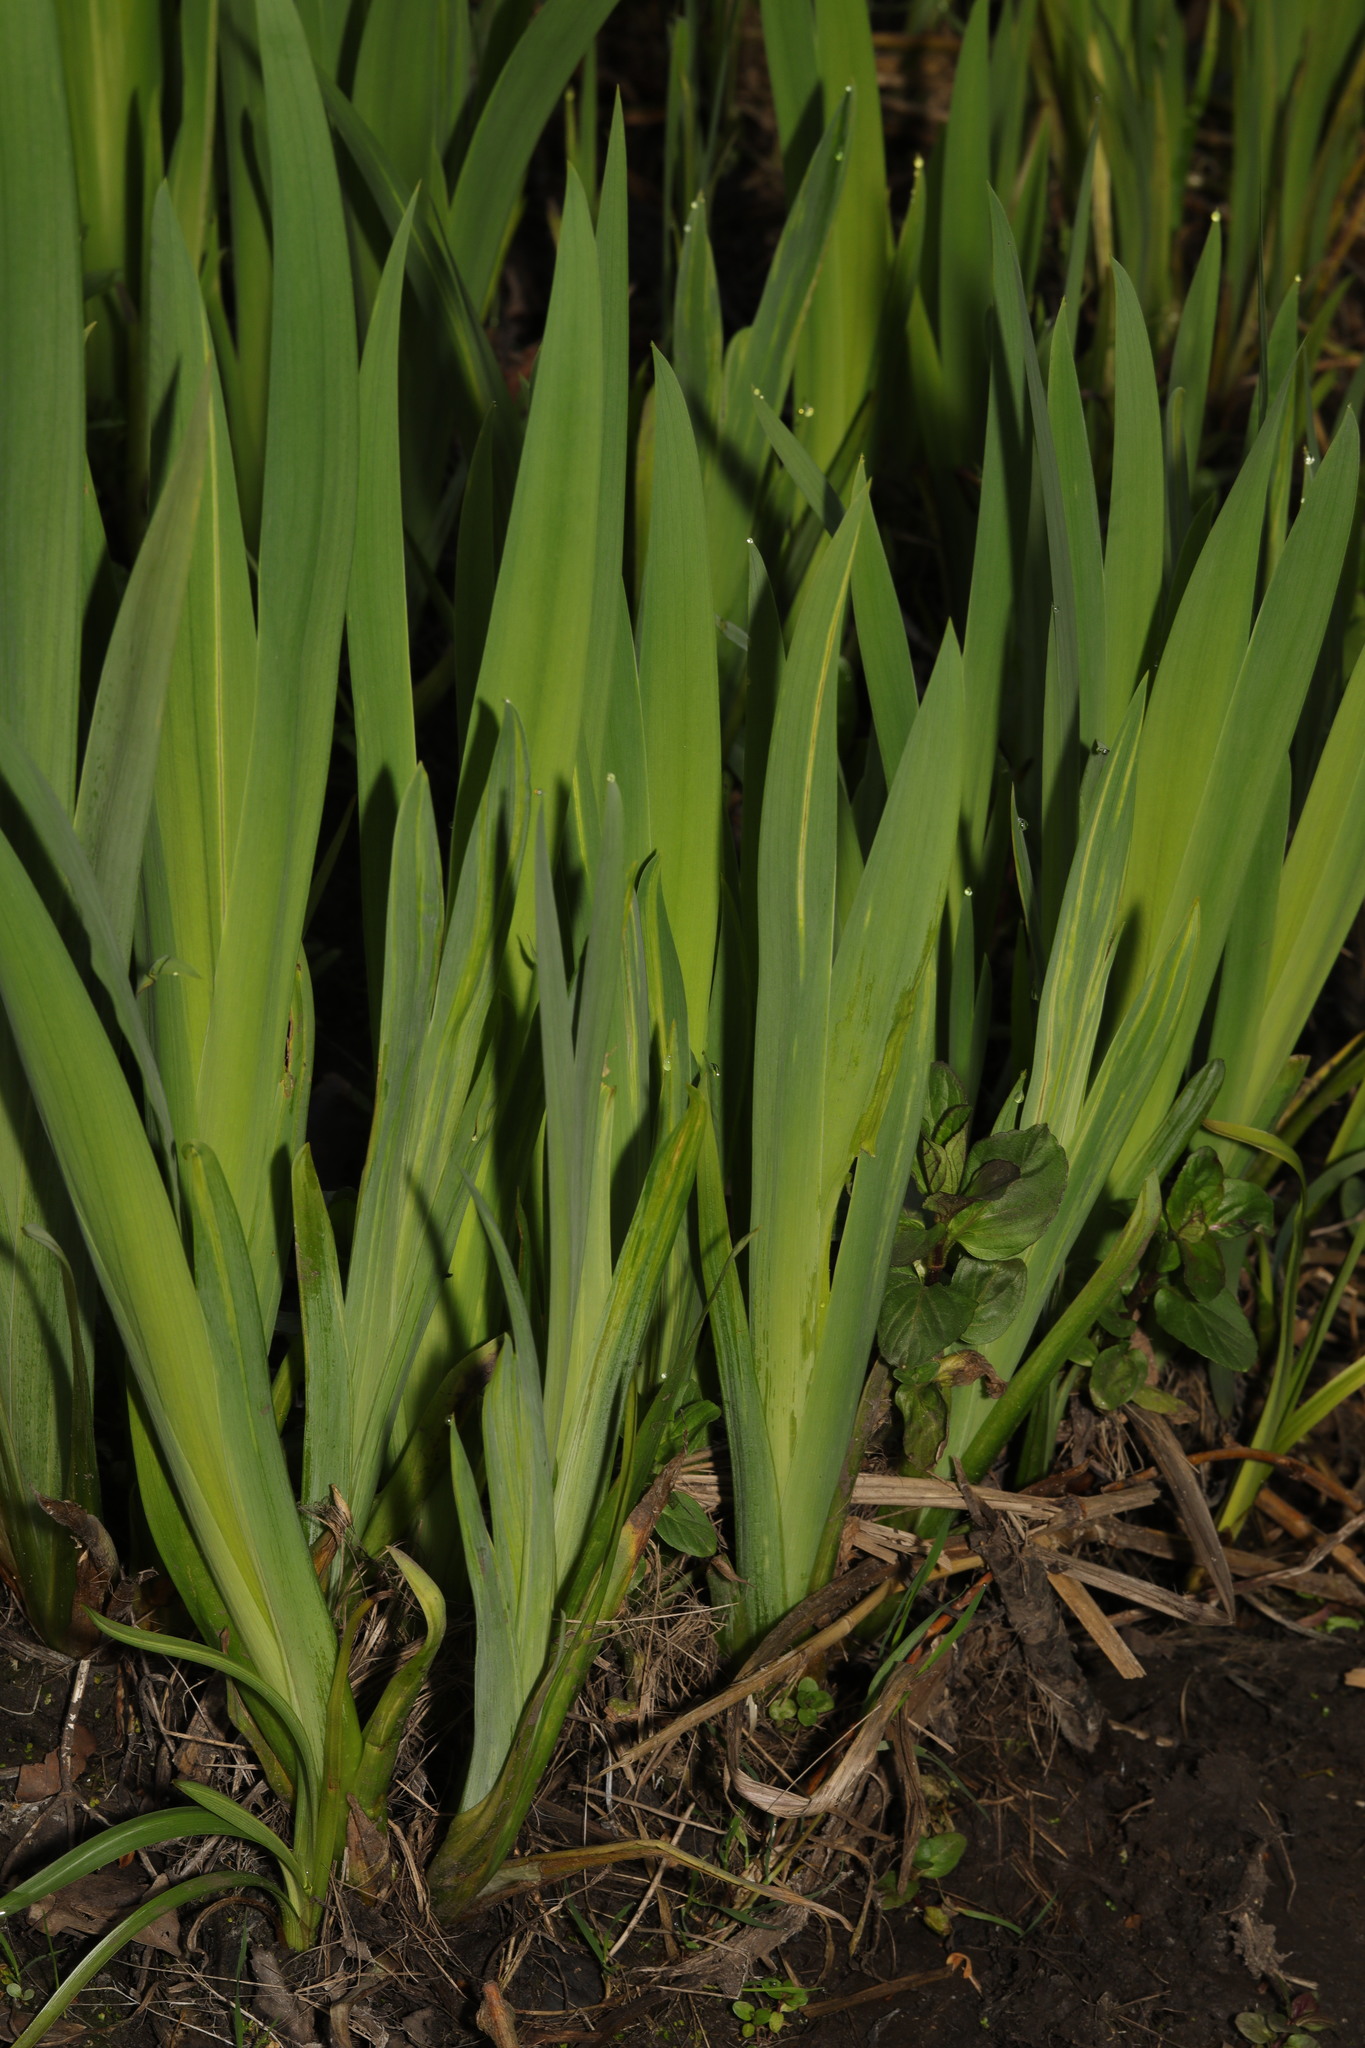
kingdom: Plantae
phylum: Tracheophyta
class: Liliopsida
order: Asparagales
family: Iridaceae
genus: Iris
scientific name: Iris pseudacorus
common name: Yellow flag
